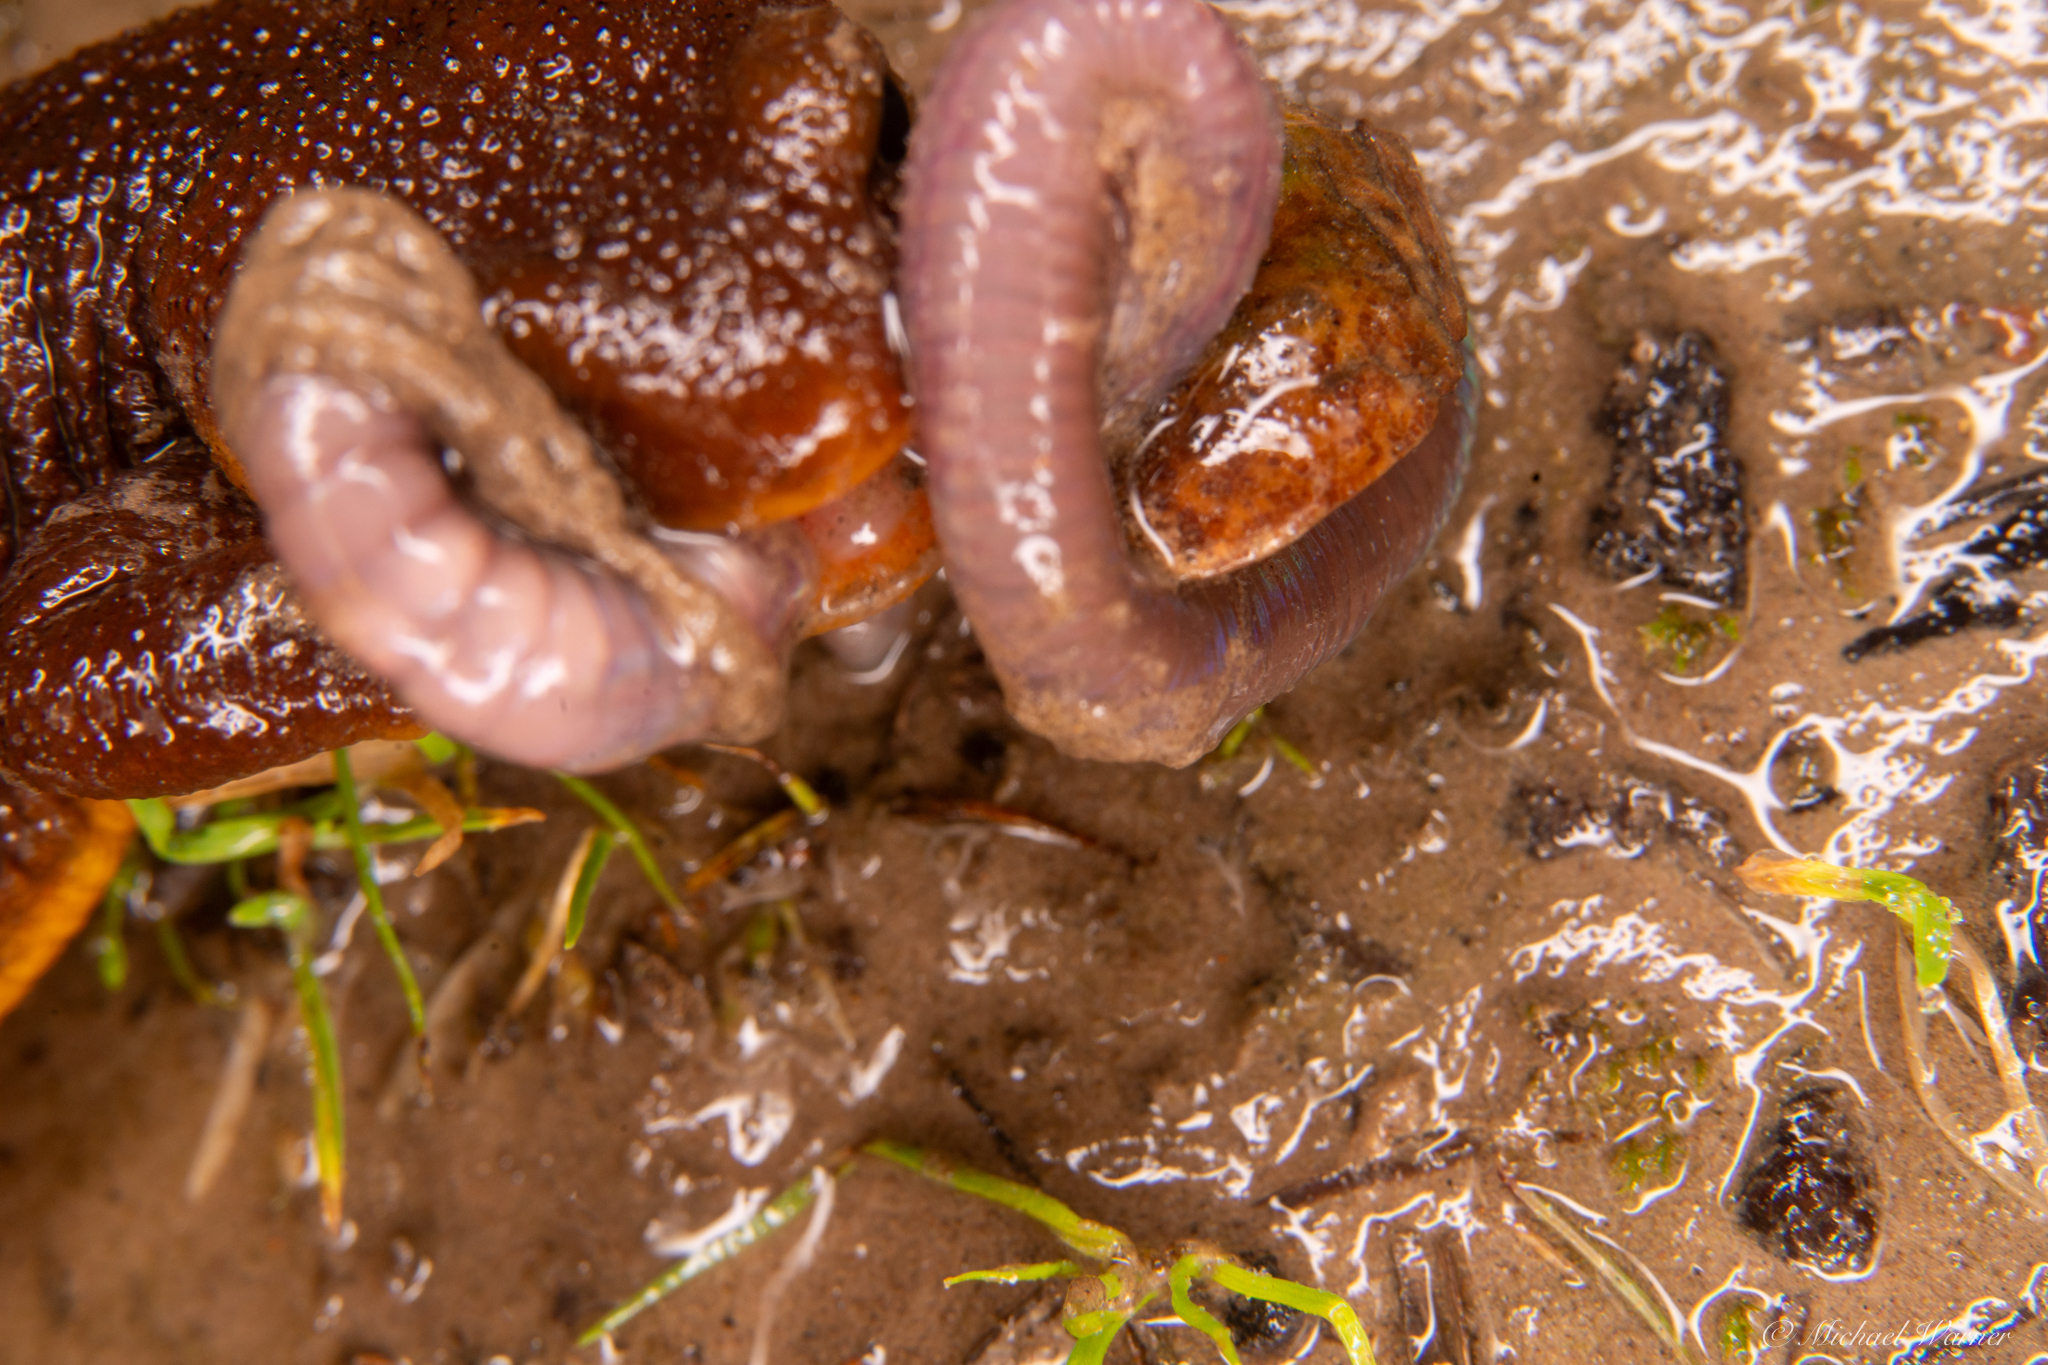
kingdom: Animalia
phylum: Chordata
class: Amphibia
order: Caudata
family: Salamandridae
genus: Taricha
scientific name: Taricha torosa
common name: California newt
